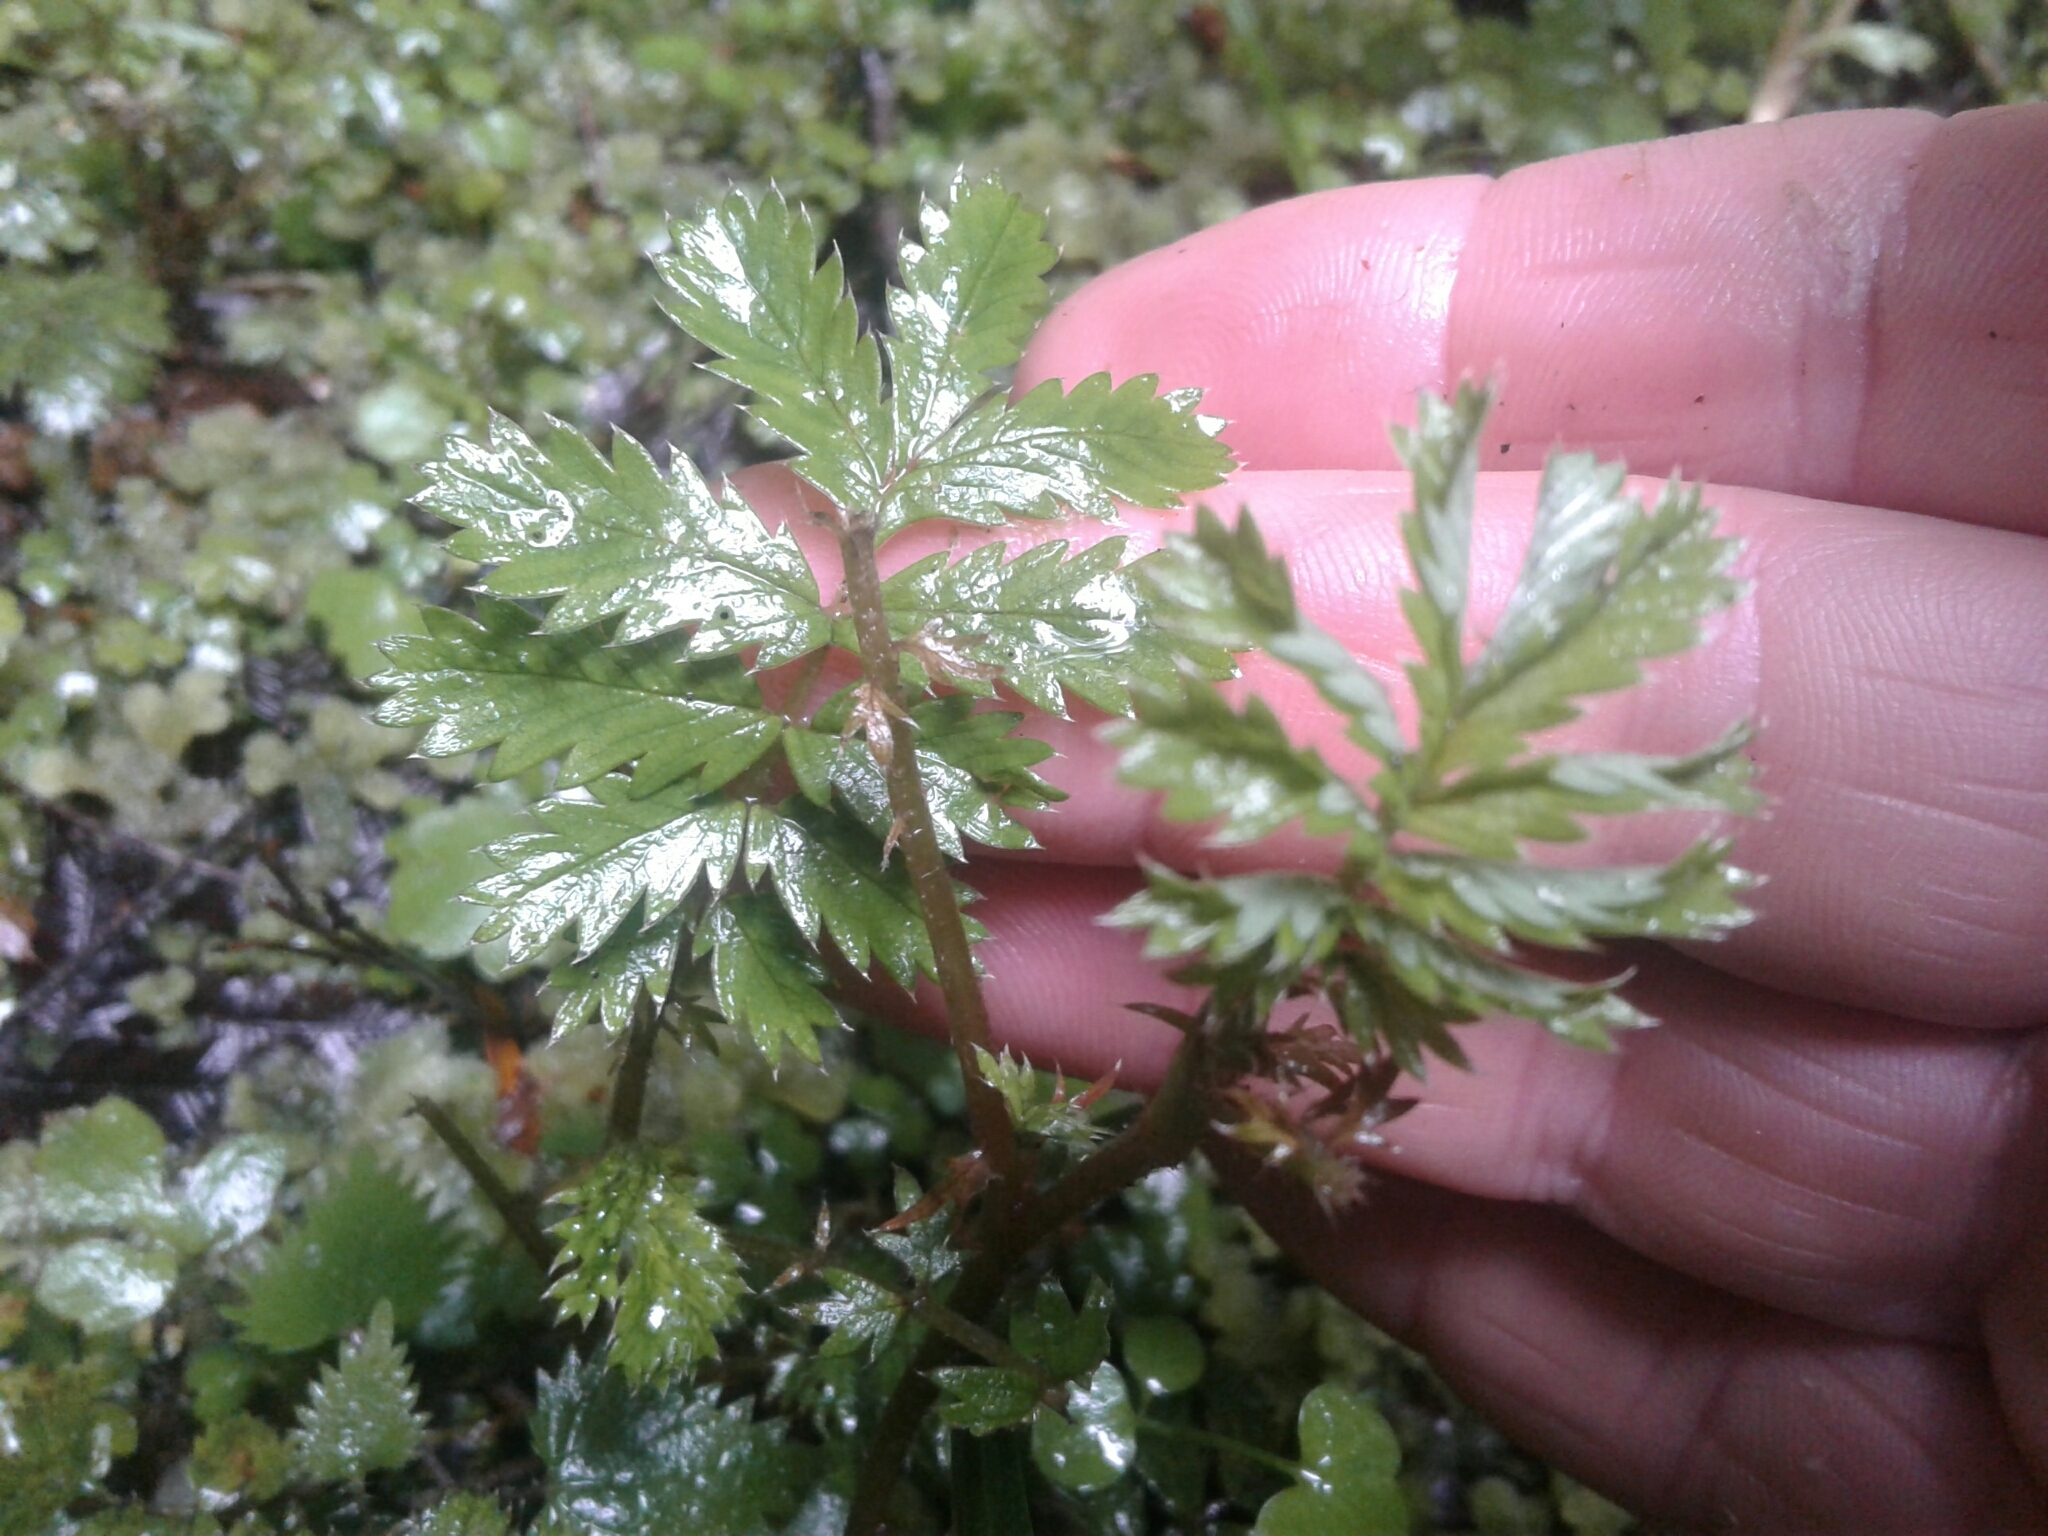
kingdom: Plantae
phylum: Tracheophyta
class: Magnoliopsida
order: Rosales
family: Rosaceae
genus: Acaena
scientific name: Acaena anserinifolia
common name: Bronze pirri-pirri-bur
